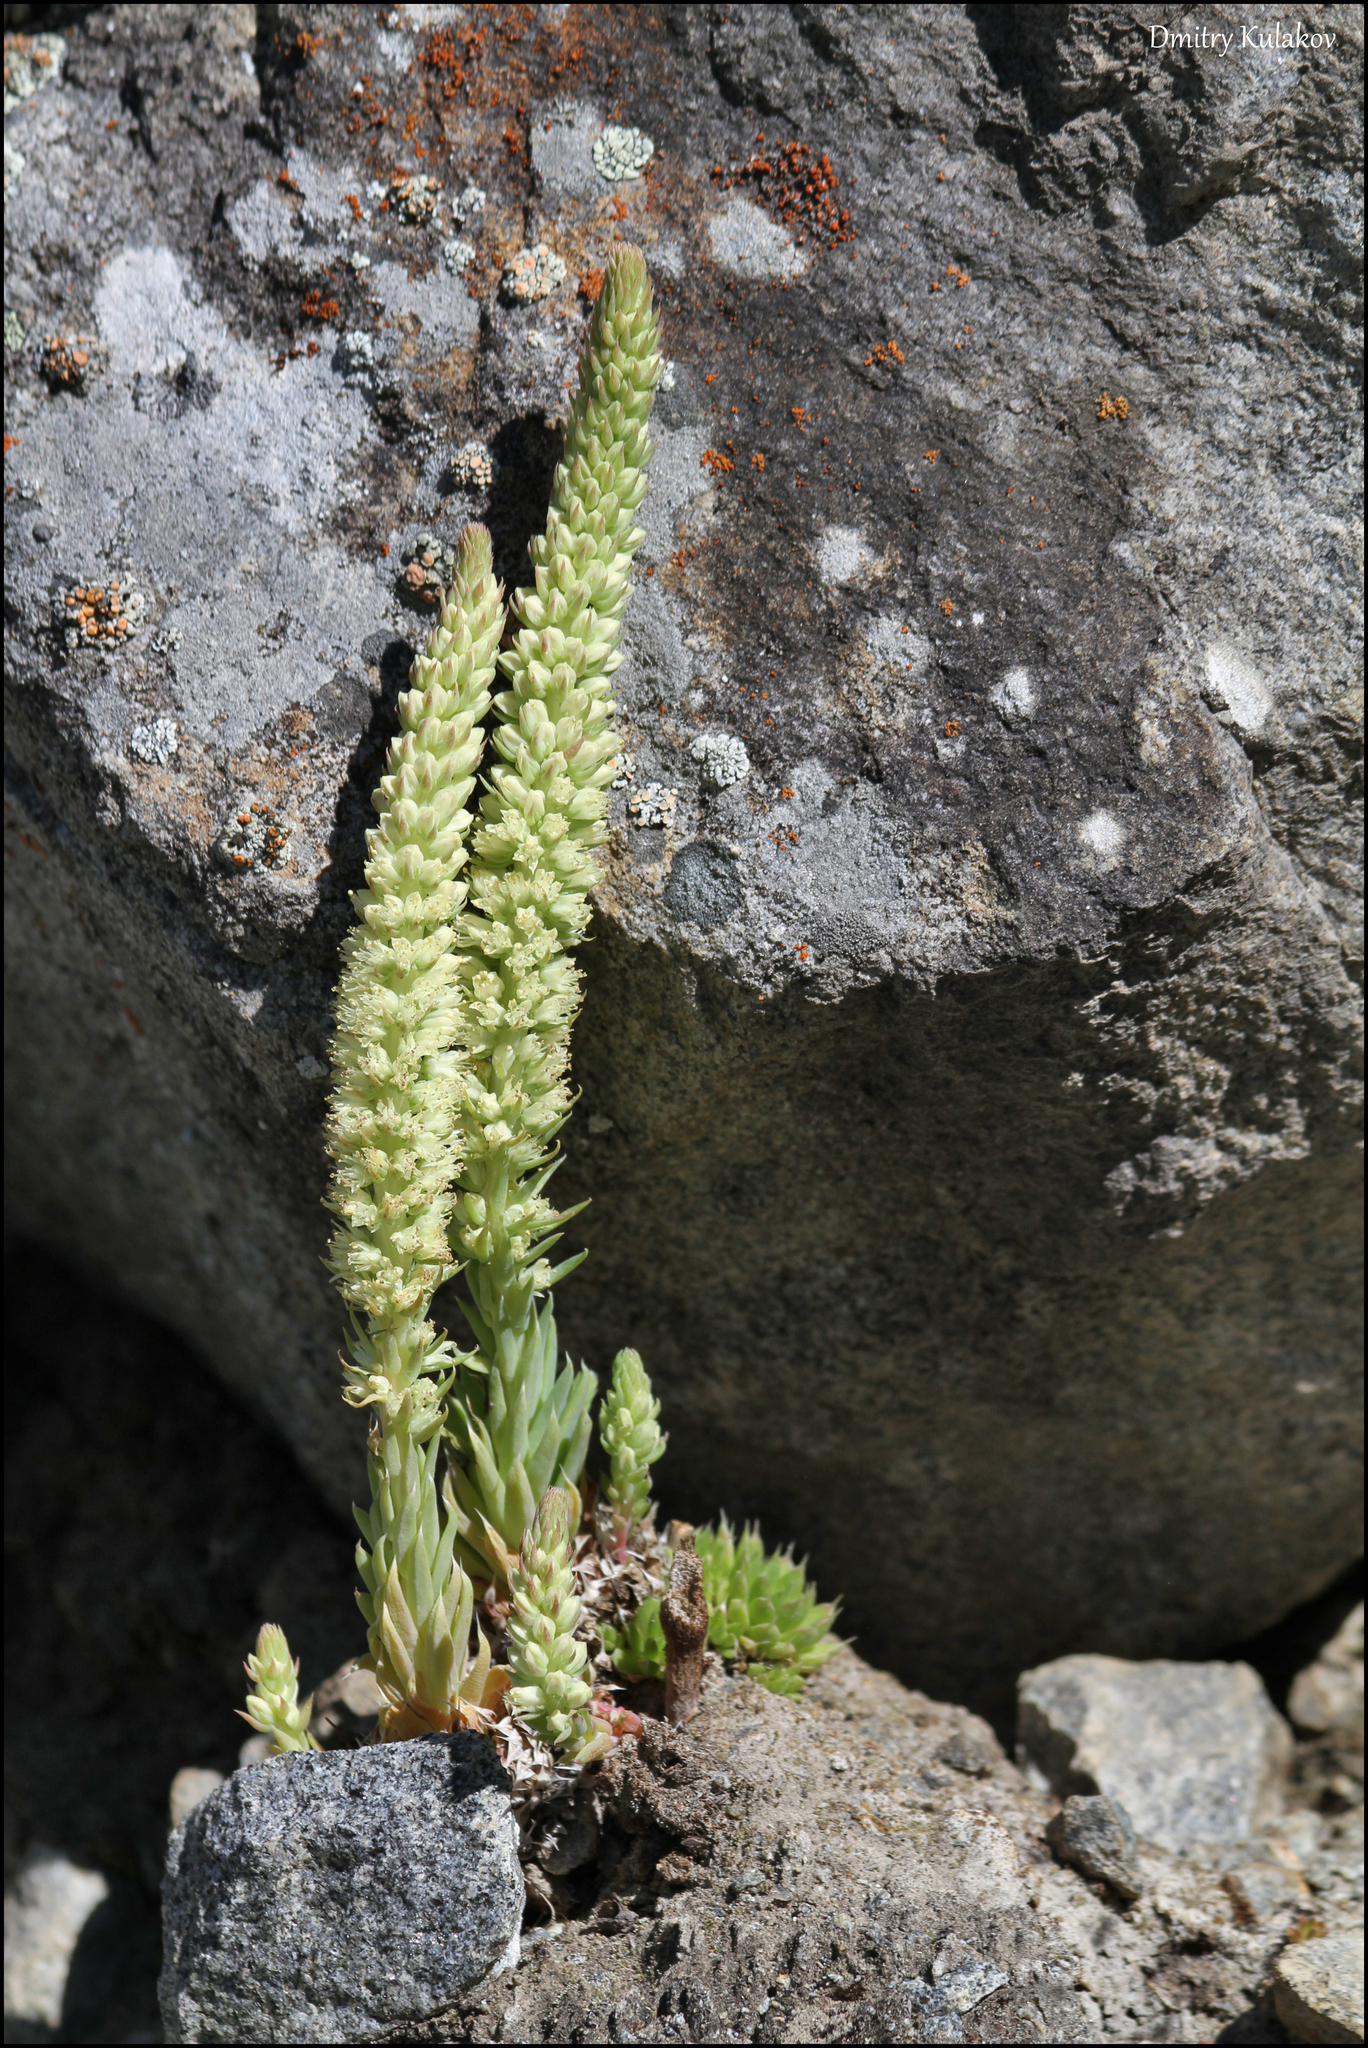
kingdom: Plantae
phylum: Tracheophyta
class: Magnoliopsida
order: Saxifragales
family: Crassulaceae
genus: Orostachys
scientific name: Orostachys spinosa
